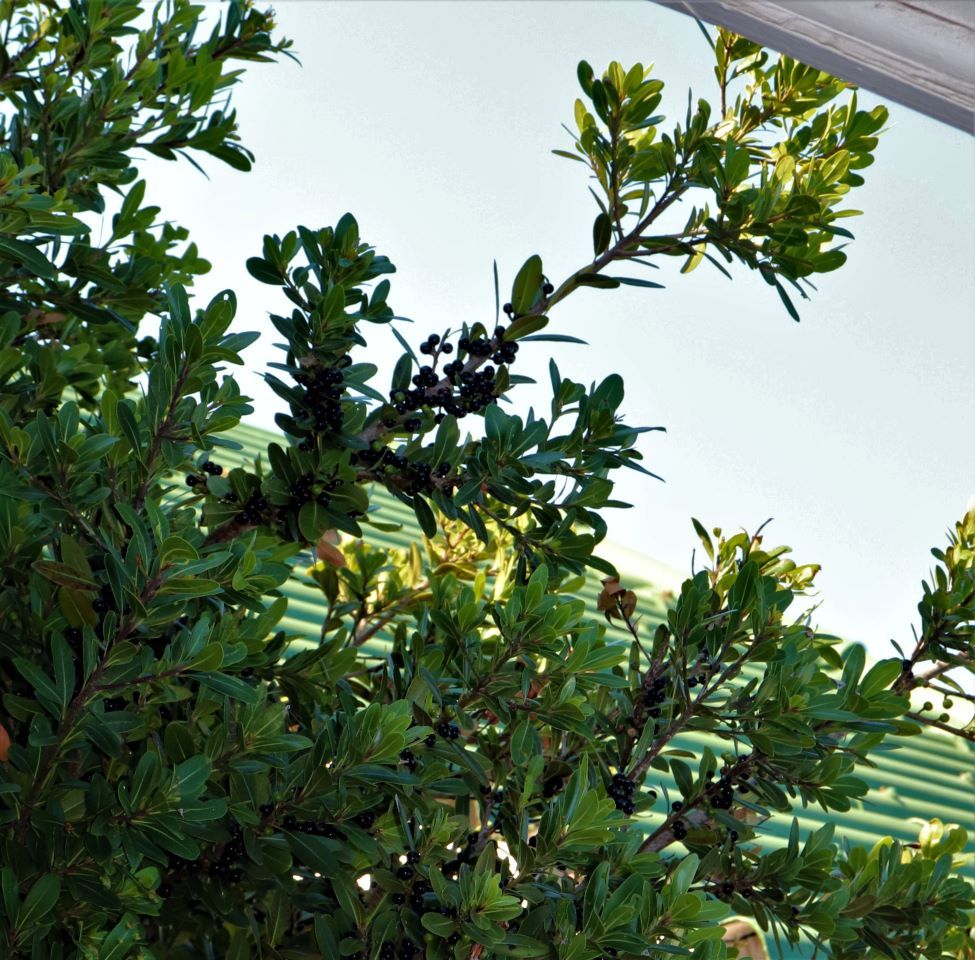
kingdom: Plantae
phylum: Tracheophyta
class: Magnoliopsida
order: Ericales
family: Sapotaceae
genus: Sideroxylon
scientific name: Sideroxylon inerme
